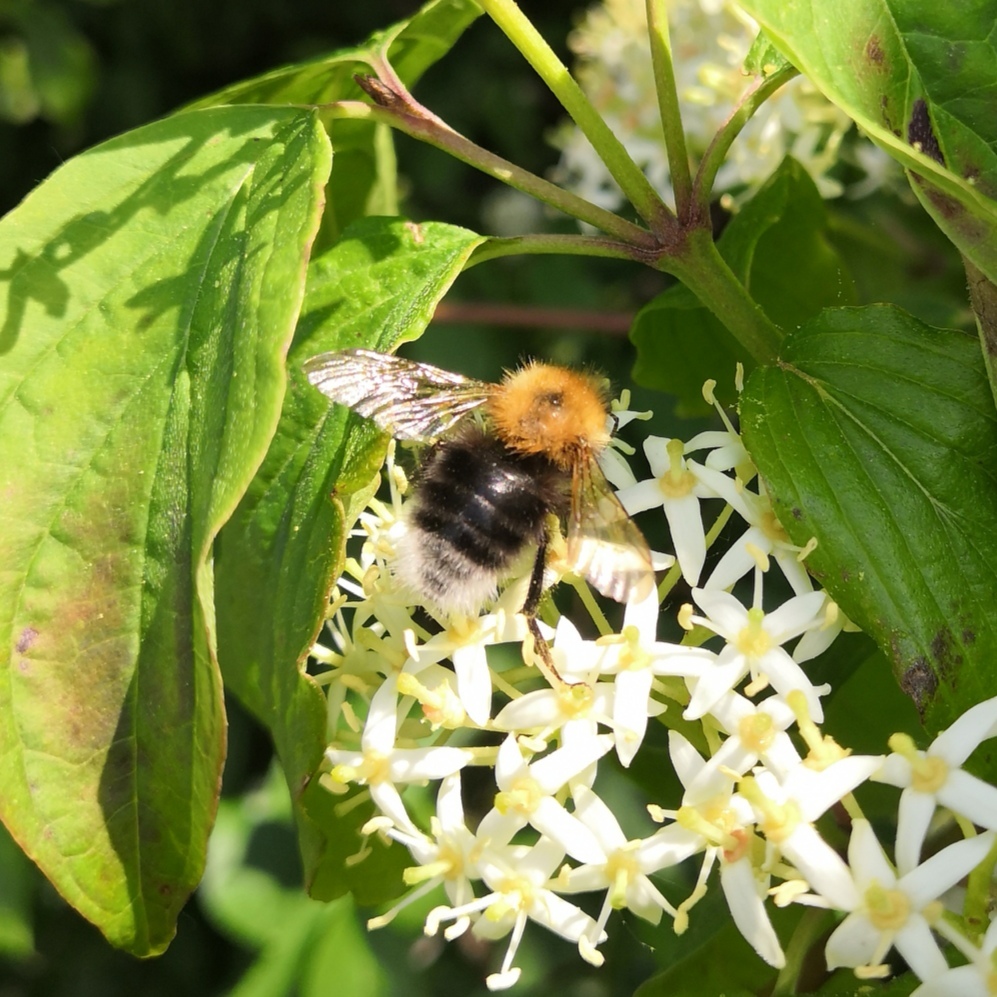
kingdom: Animalia
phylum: Arthropoda
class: Insecta
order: Hymenoptera
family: Apidae
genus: Bombus
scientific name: Bombus hypnorum
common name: New garden bumblebee
